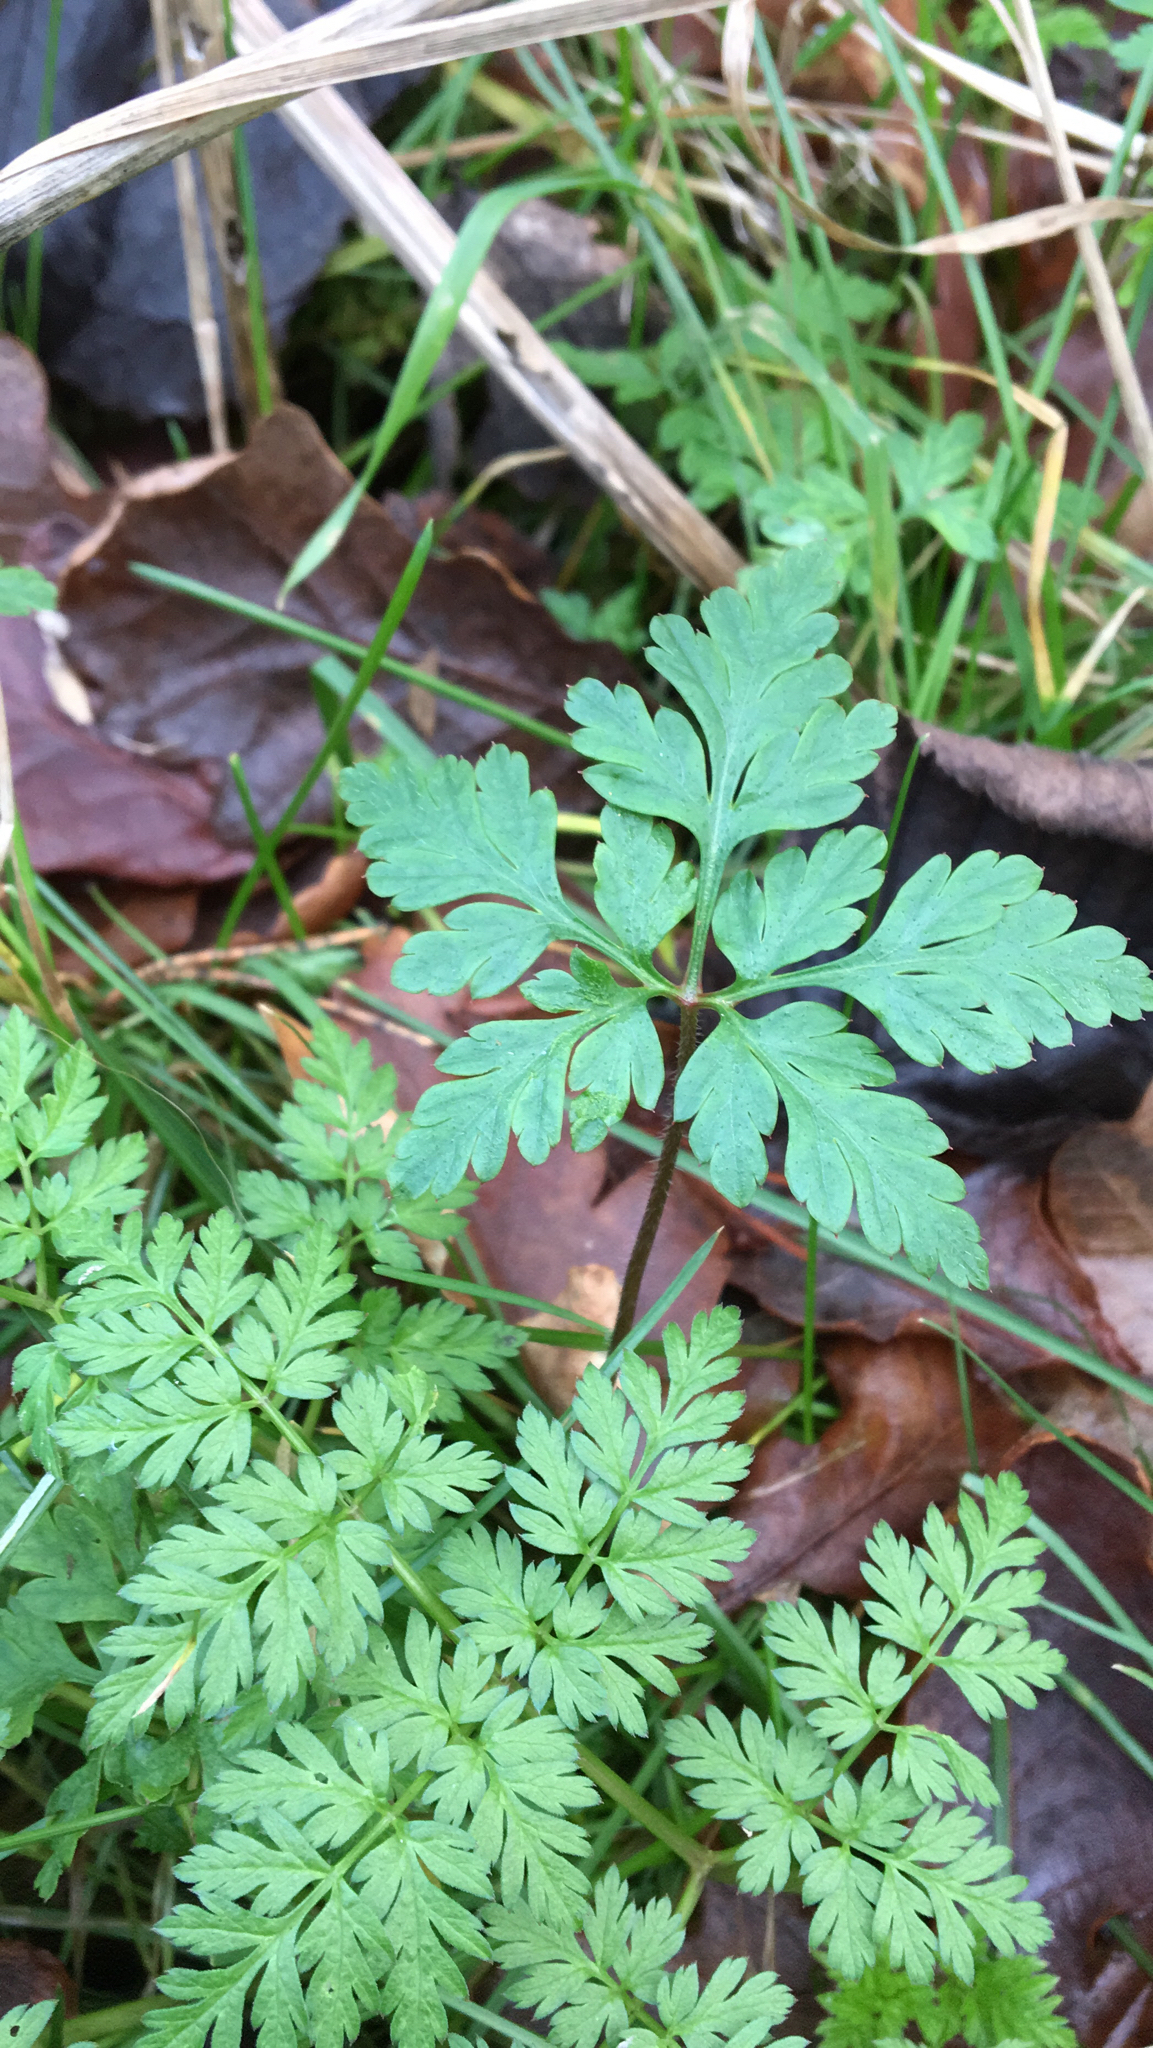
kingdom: Plantae
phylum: Tracheophyta
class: Magnoliopsida
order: Geraniales
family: Geraniaceae
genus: Geranium
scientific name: Geranium robertianum
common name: Herb-robert
